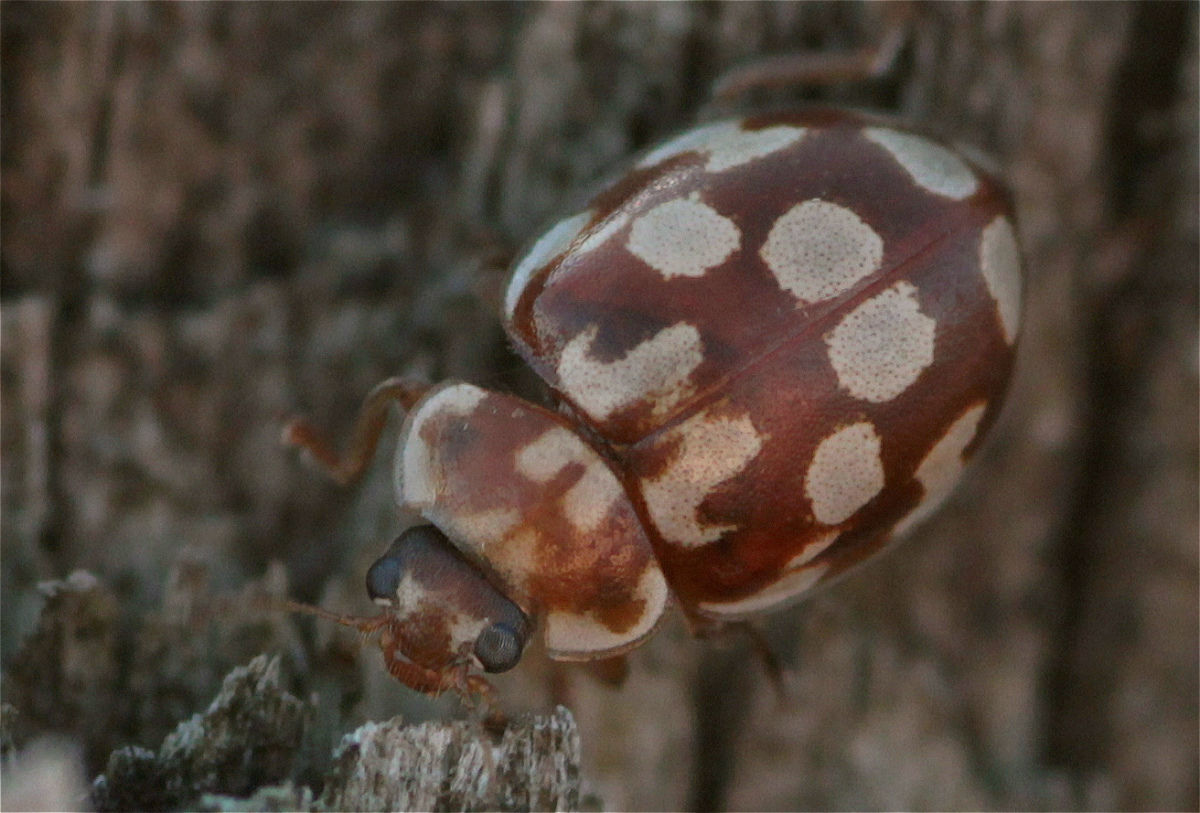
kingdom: Animalia
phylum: Arthropoda
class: Insecta
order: Coleoptera
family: Coccinellidae
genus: Myrrha
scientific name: Myrrha octodecimguttata
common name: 18-spot ladybird
